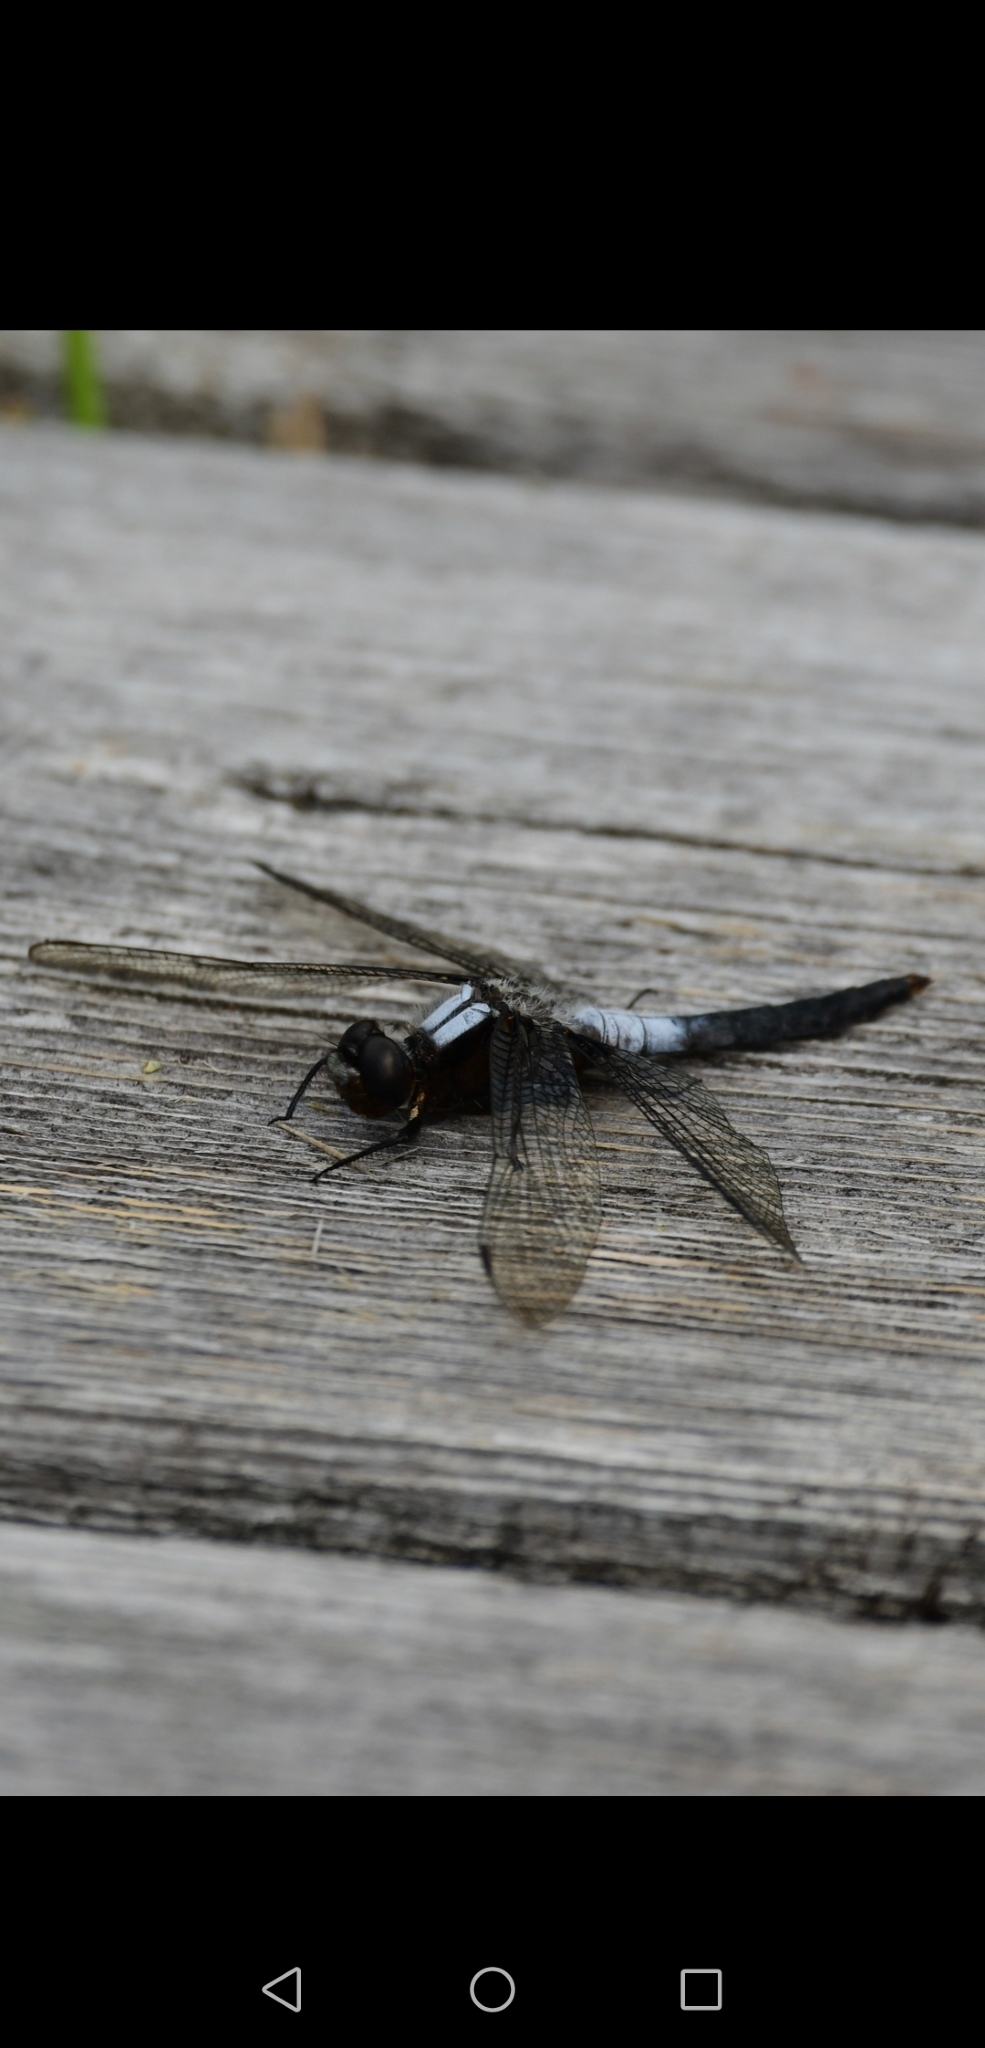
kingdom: Animalia
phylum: Arthropoda
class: Insecta
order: Odonata
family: Libellulidae
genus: Ladona
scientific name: Ladona julia
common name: Chalk-fronted corporal
